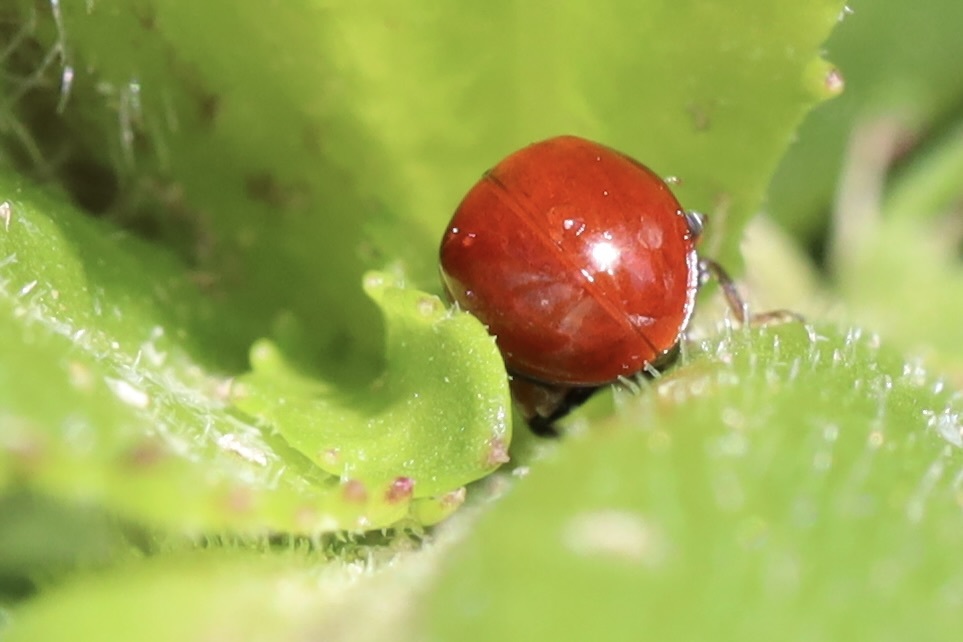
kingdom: Animalia
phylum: Arthropoda
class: Insecta
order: Coleoptera
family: Coccinellidae
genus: Cycloneda
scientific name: Cycloneda polita
